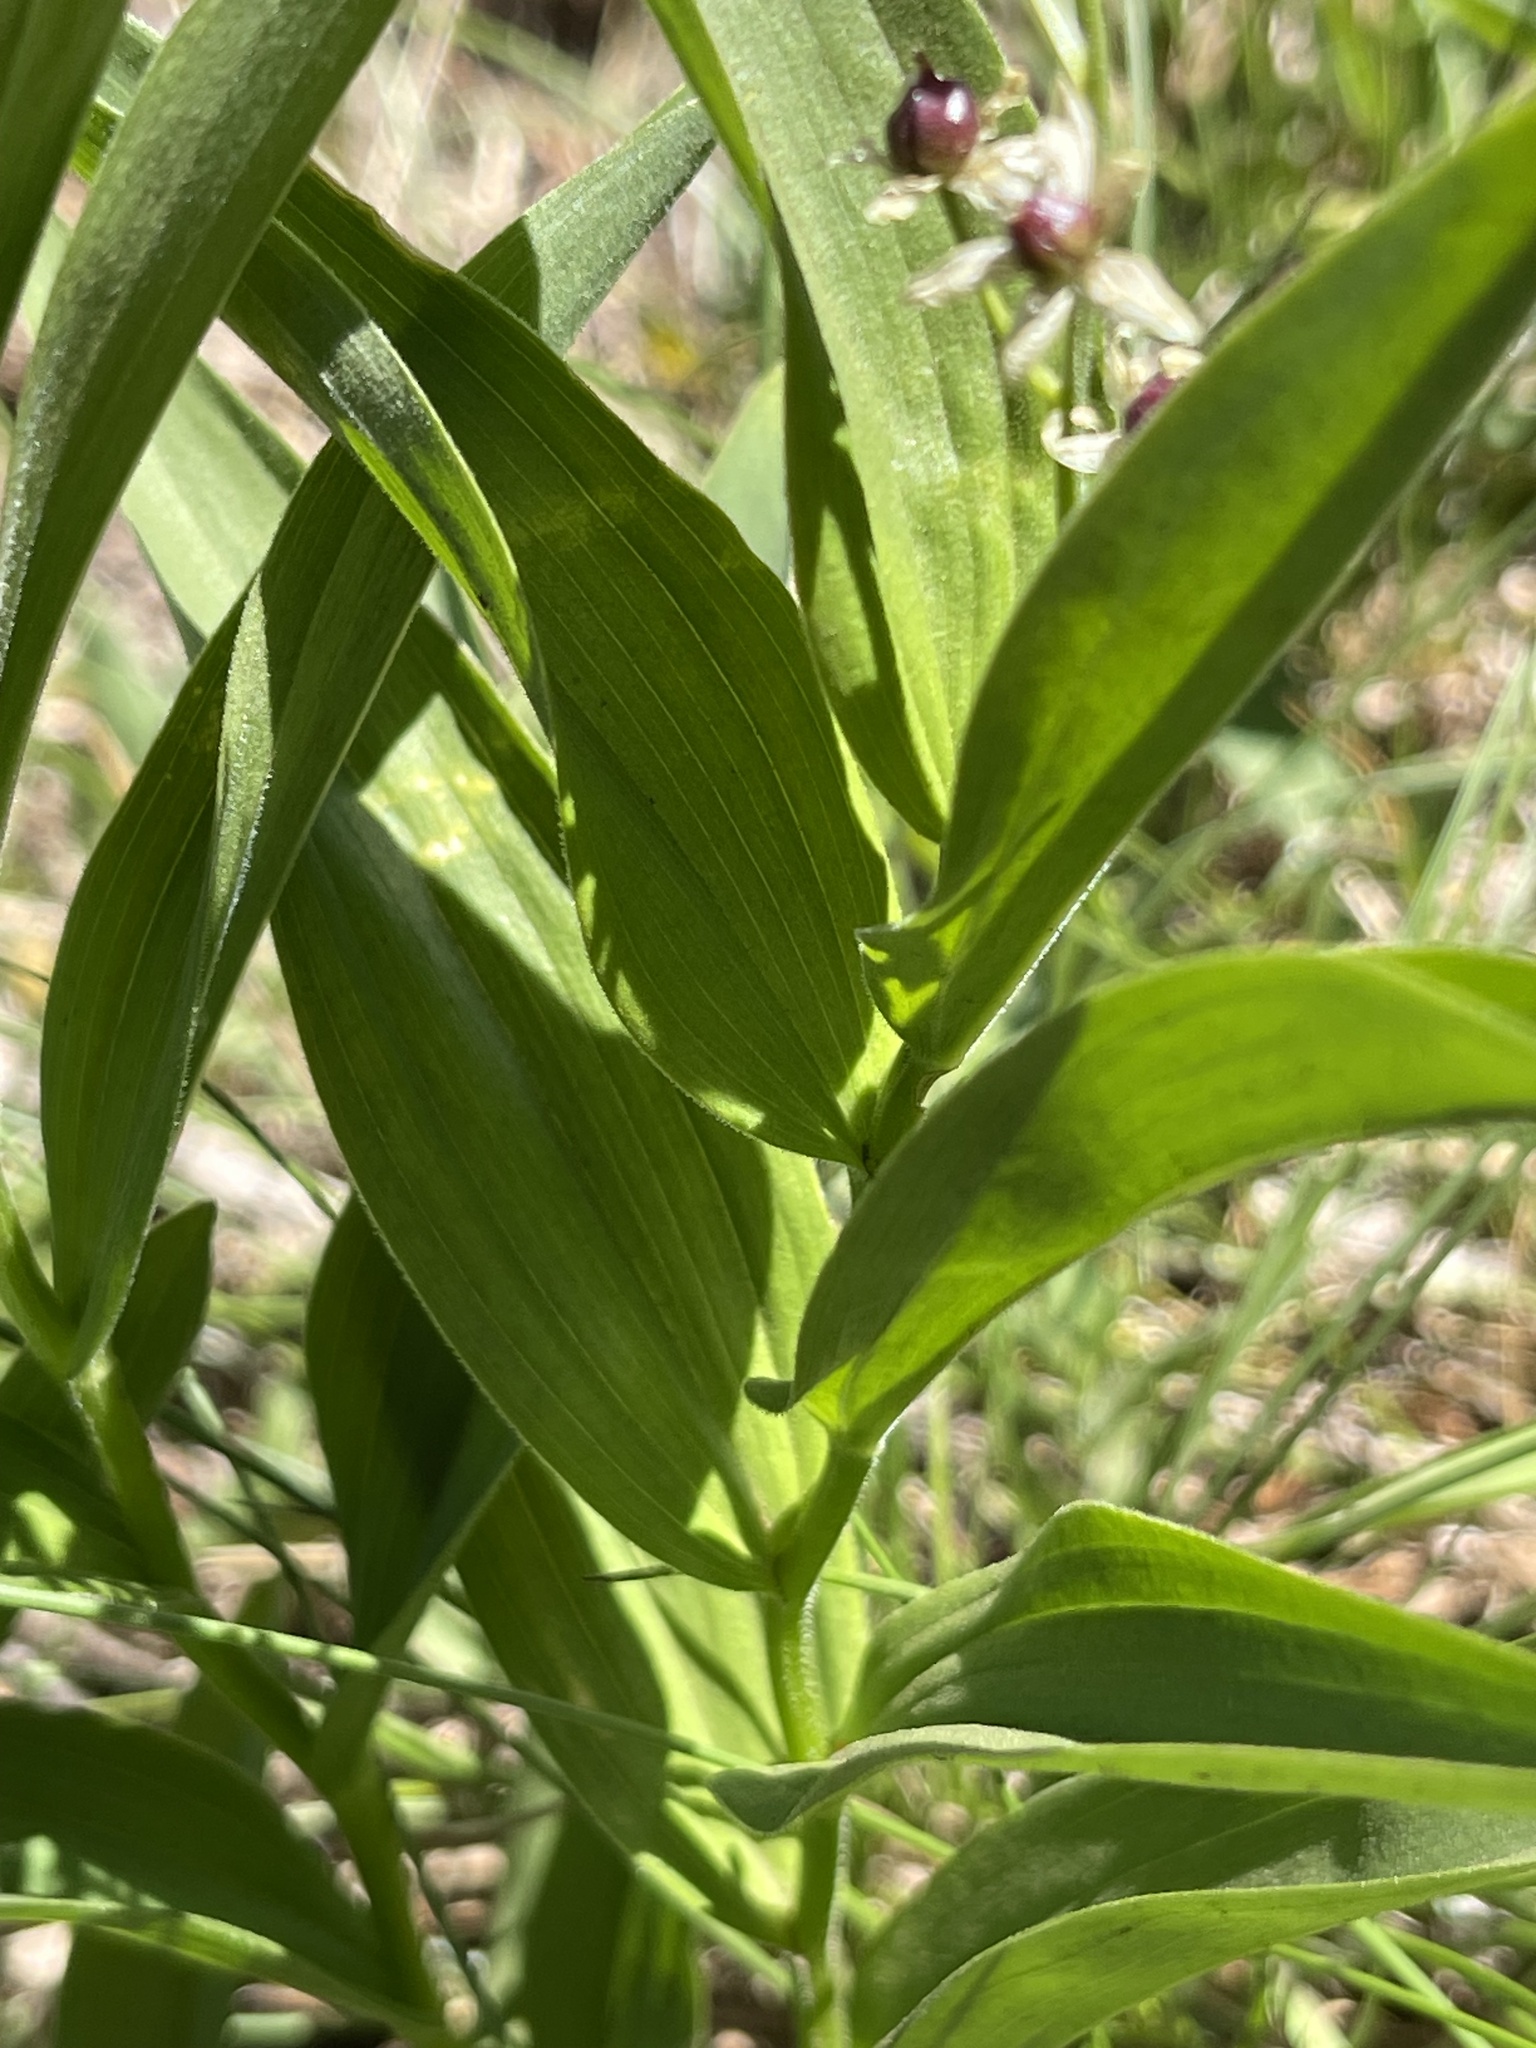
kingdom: Plantae
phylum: Tracheophyta
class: Liliopsida
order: Asparagales
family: Asparagaceae
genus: Maianthemum
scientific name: Maianthemum stellatum
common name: Little false solomon's seal
